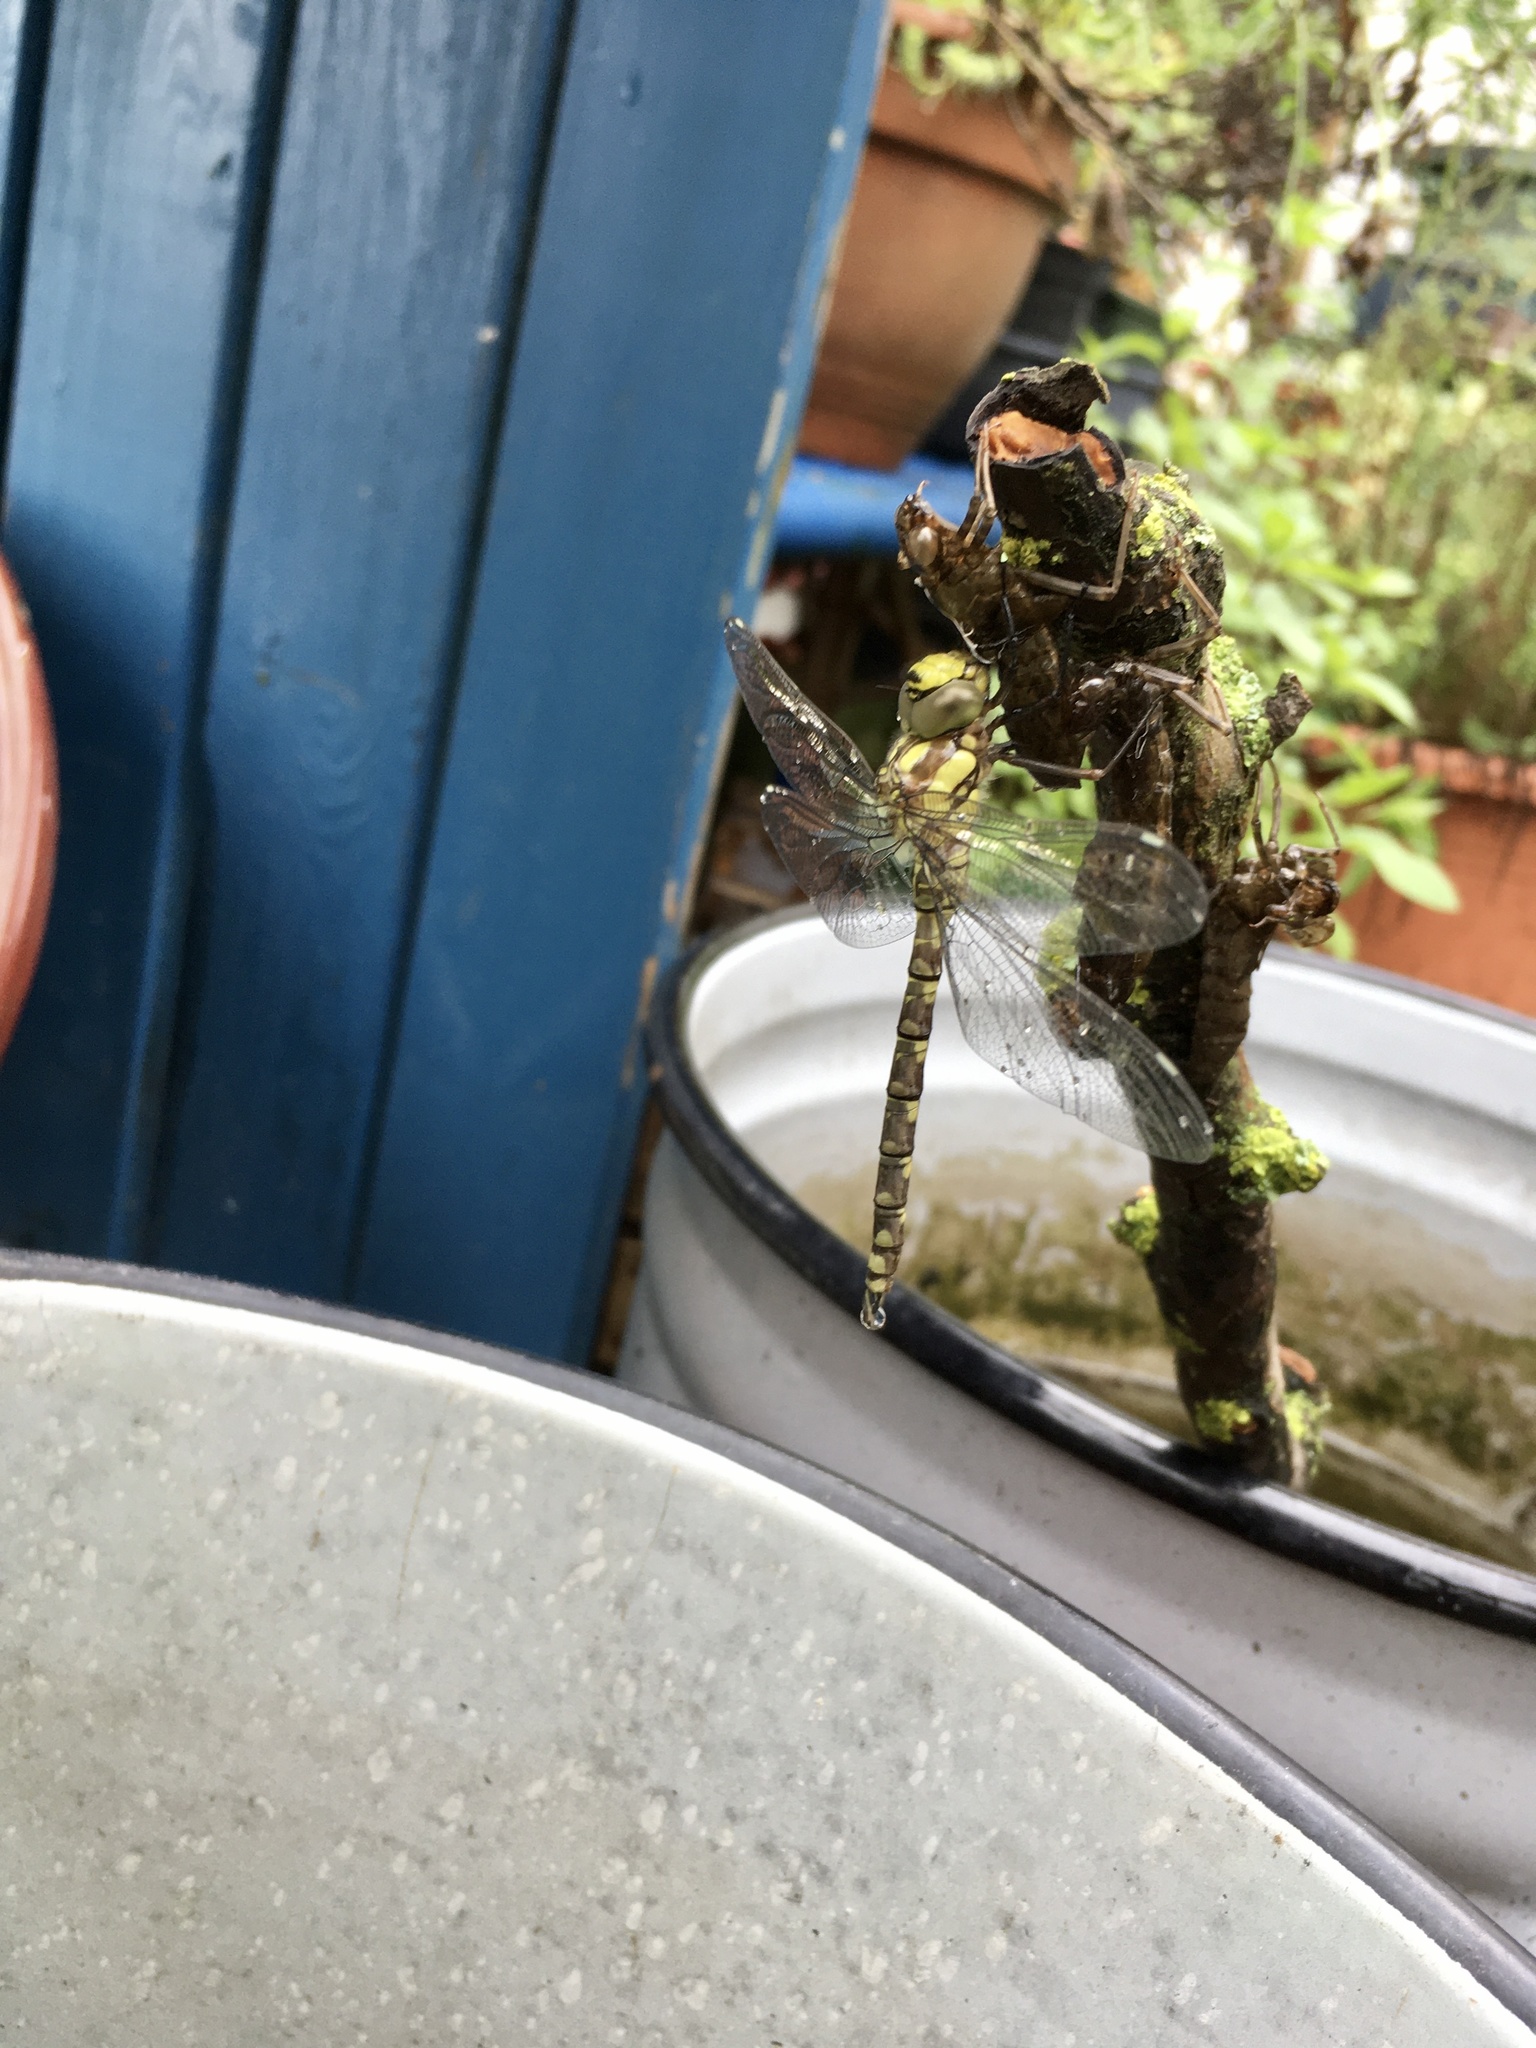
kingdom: Animalia
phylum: Arthropoda
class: Insecta
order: Odonata
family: Aeshnidae
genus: Aeshna
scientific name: Aeshna cyanea
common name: Southern hawker
